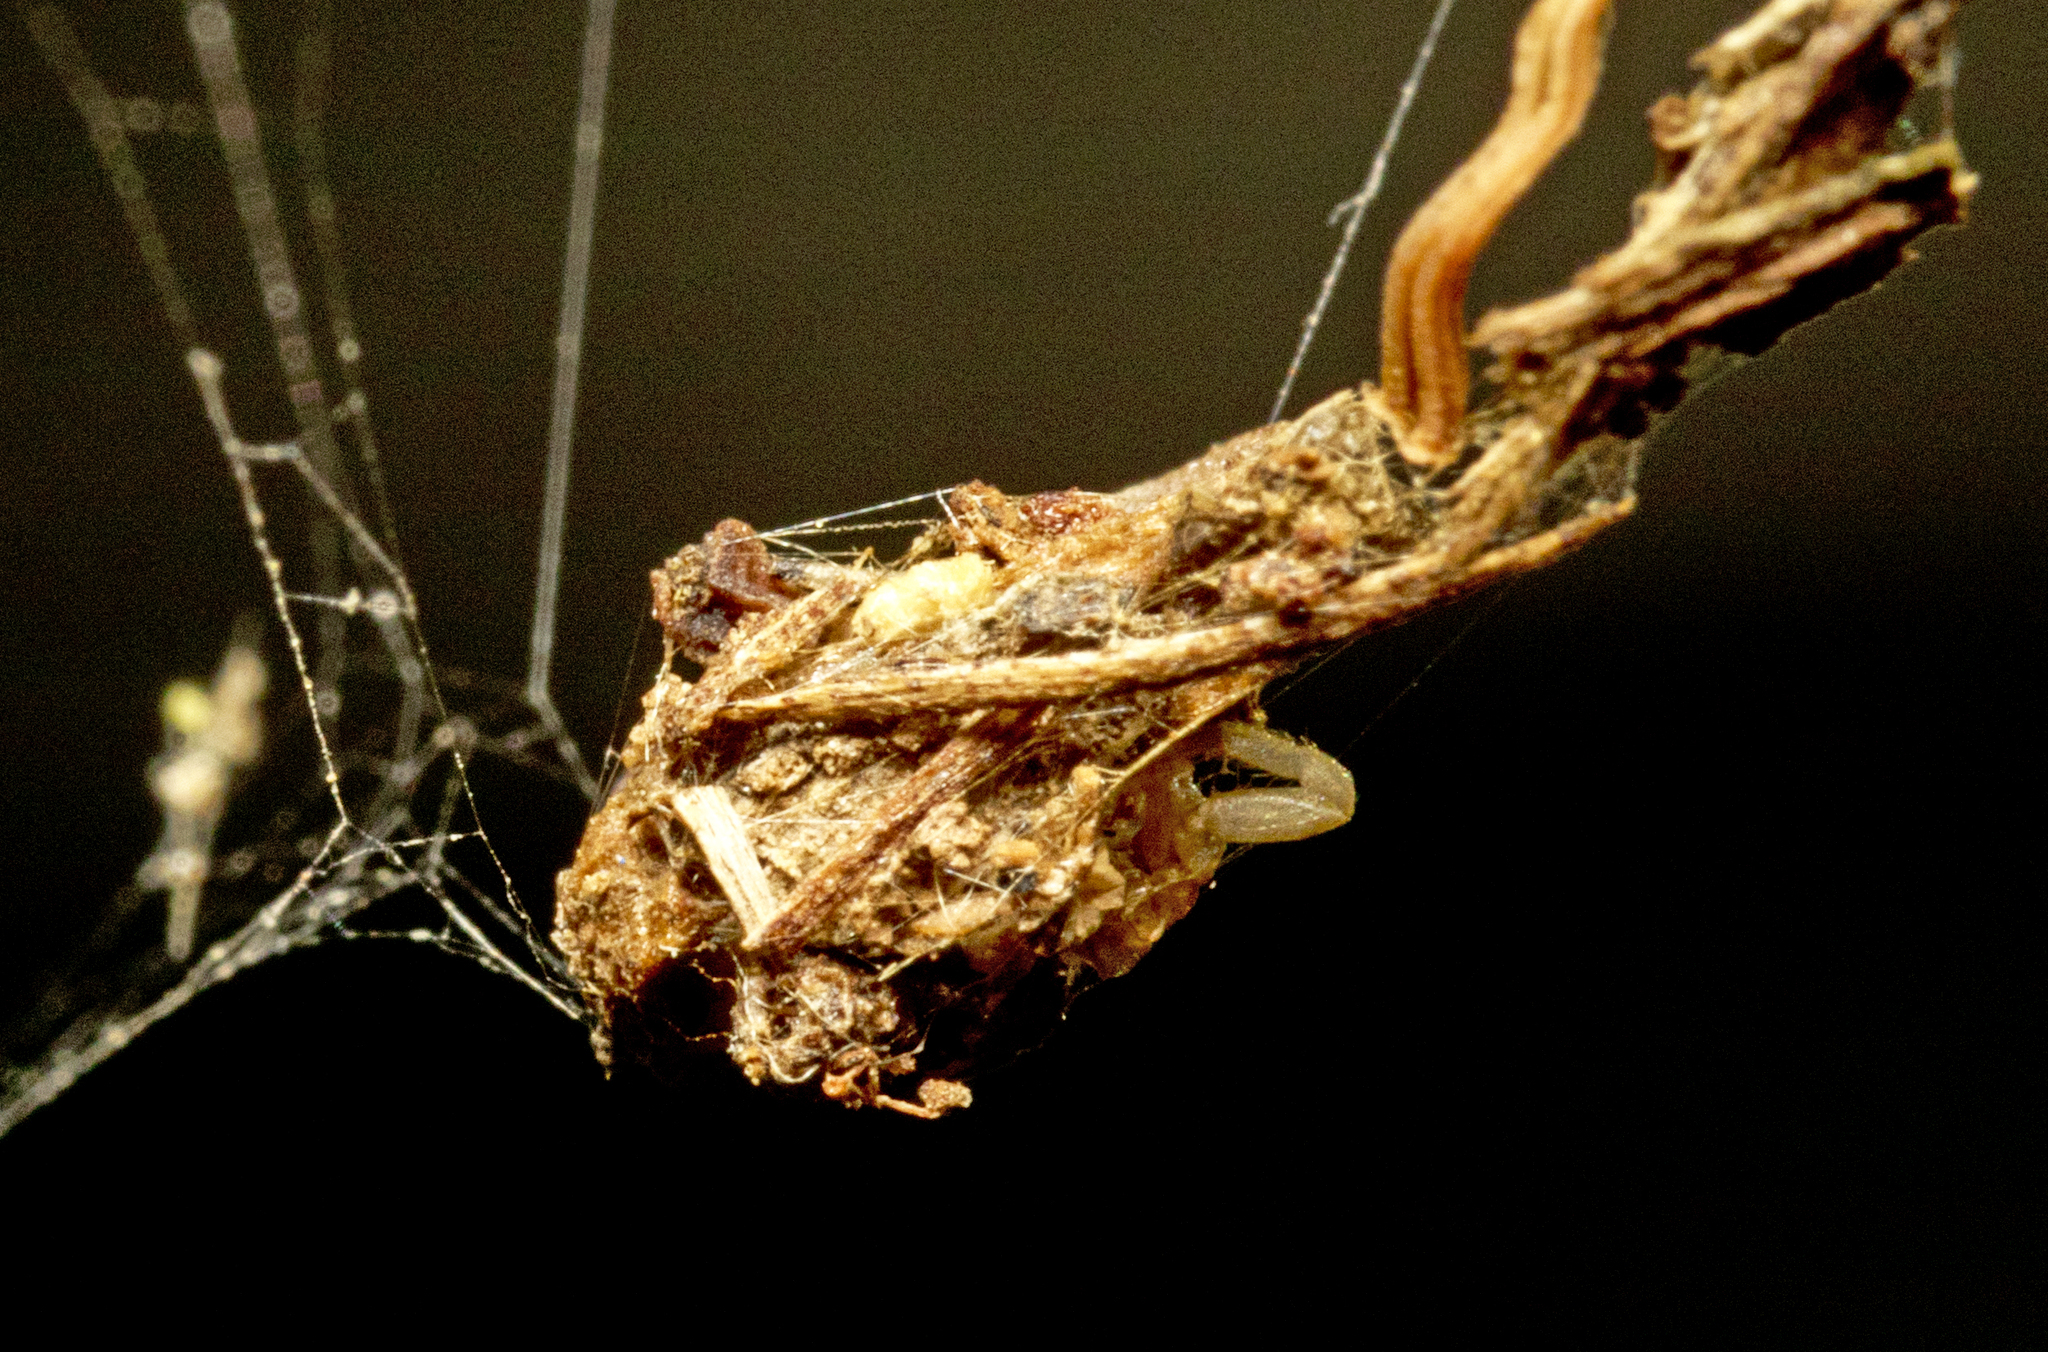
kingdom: Animalia
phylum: Arthropoda
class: Arachnida
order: Araneae
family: Araneidae
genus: Arachnura
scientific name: Arachnura higginsi
